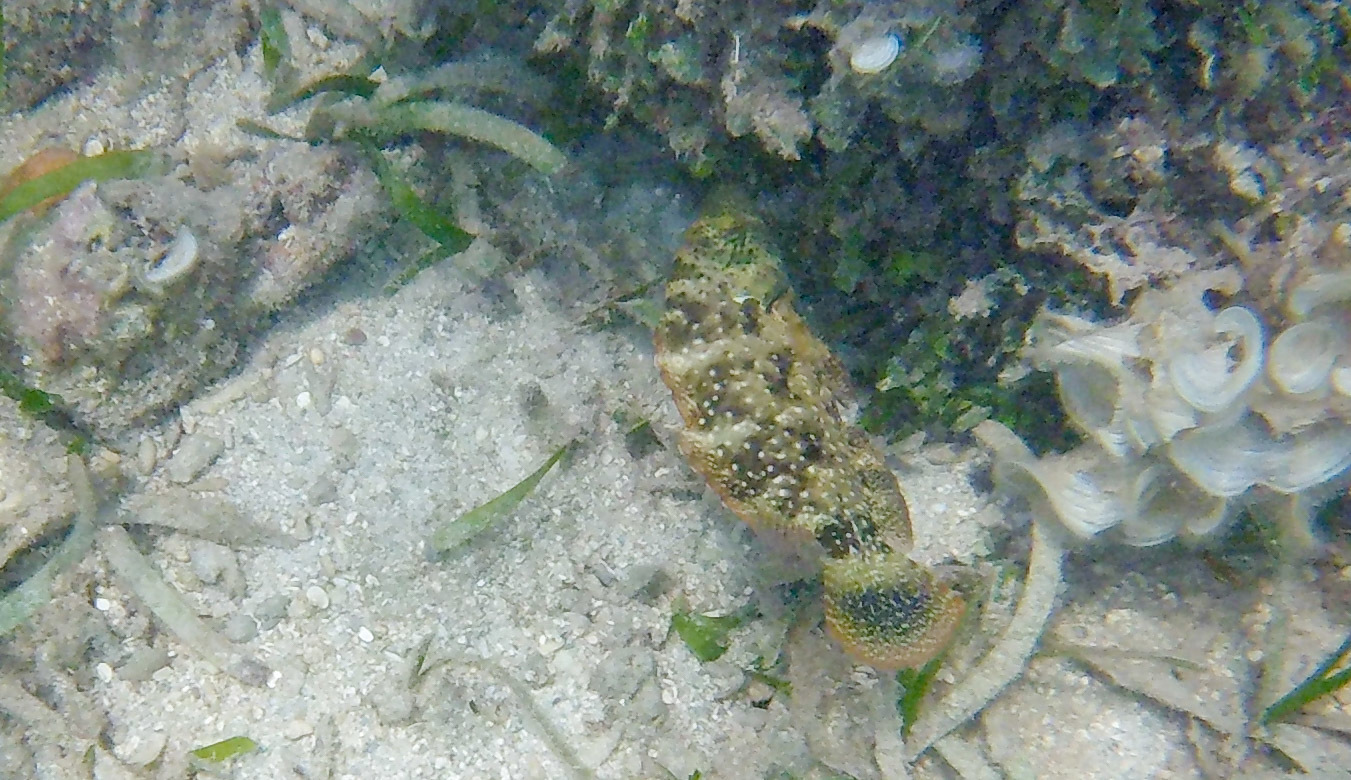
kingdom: Animalia
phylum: Chordata
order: Perciformes
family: Labridae
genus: Cheilinus
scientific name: Cheilinus chlorourus
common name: Floral wrasse
